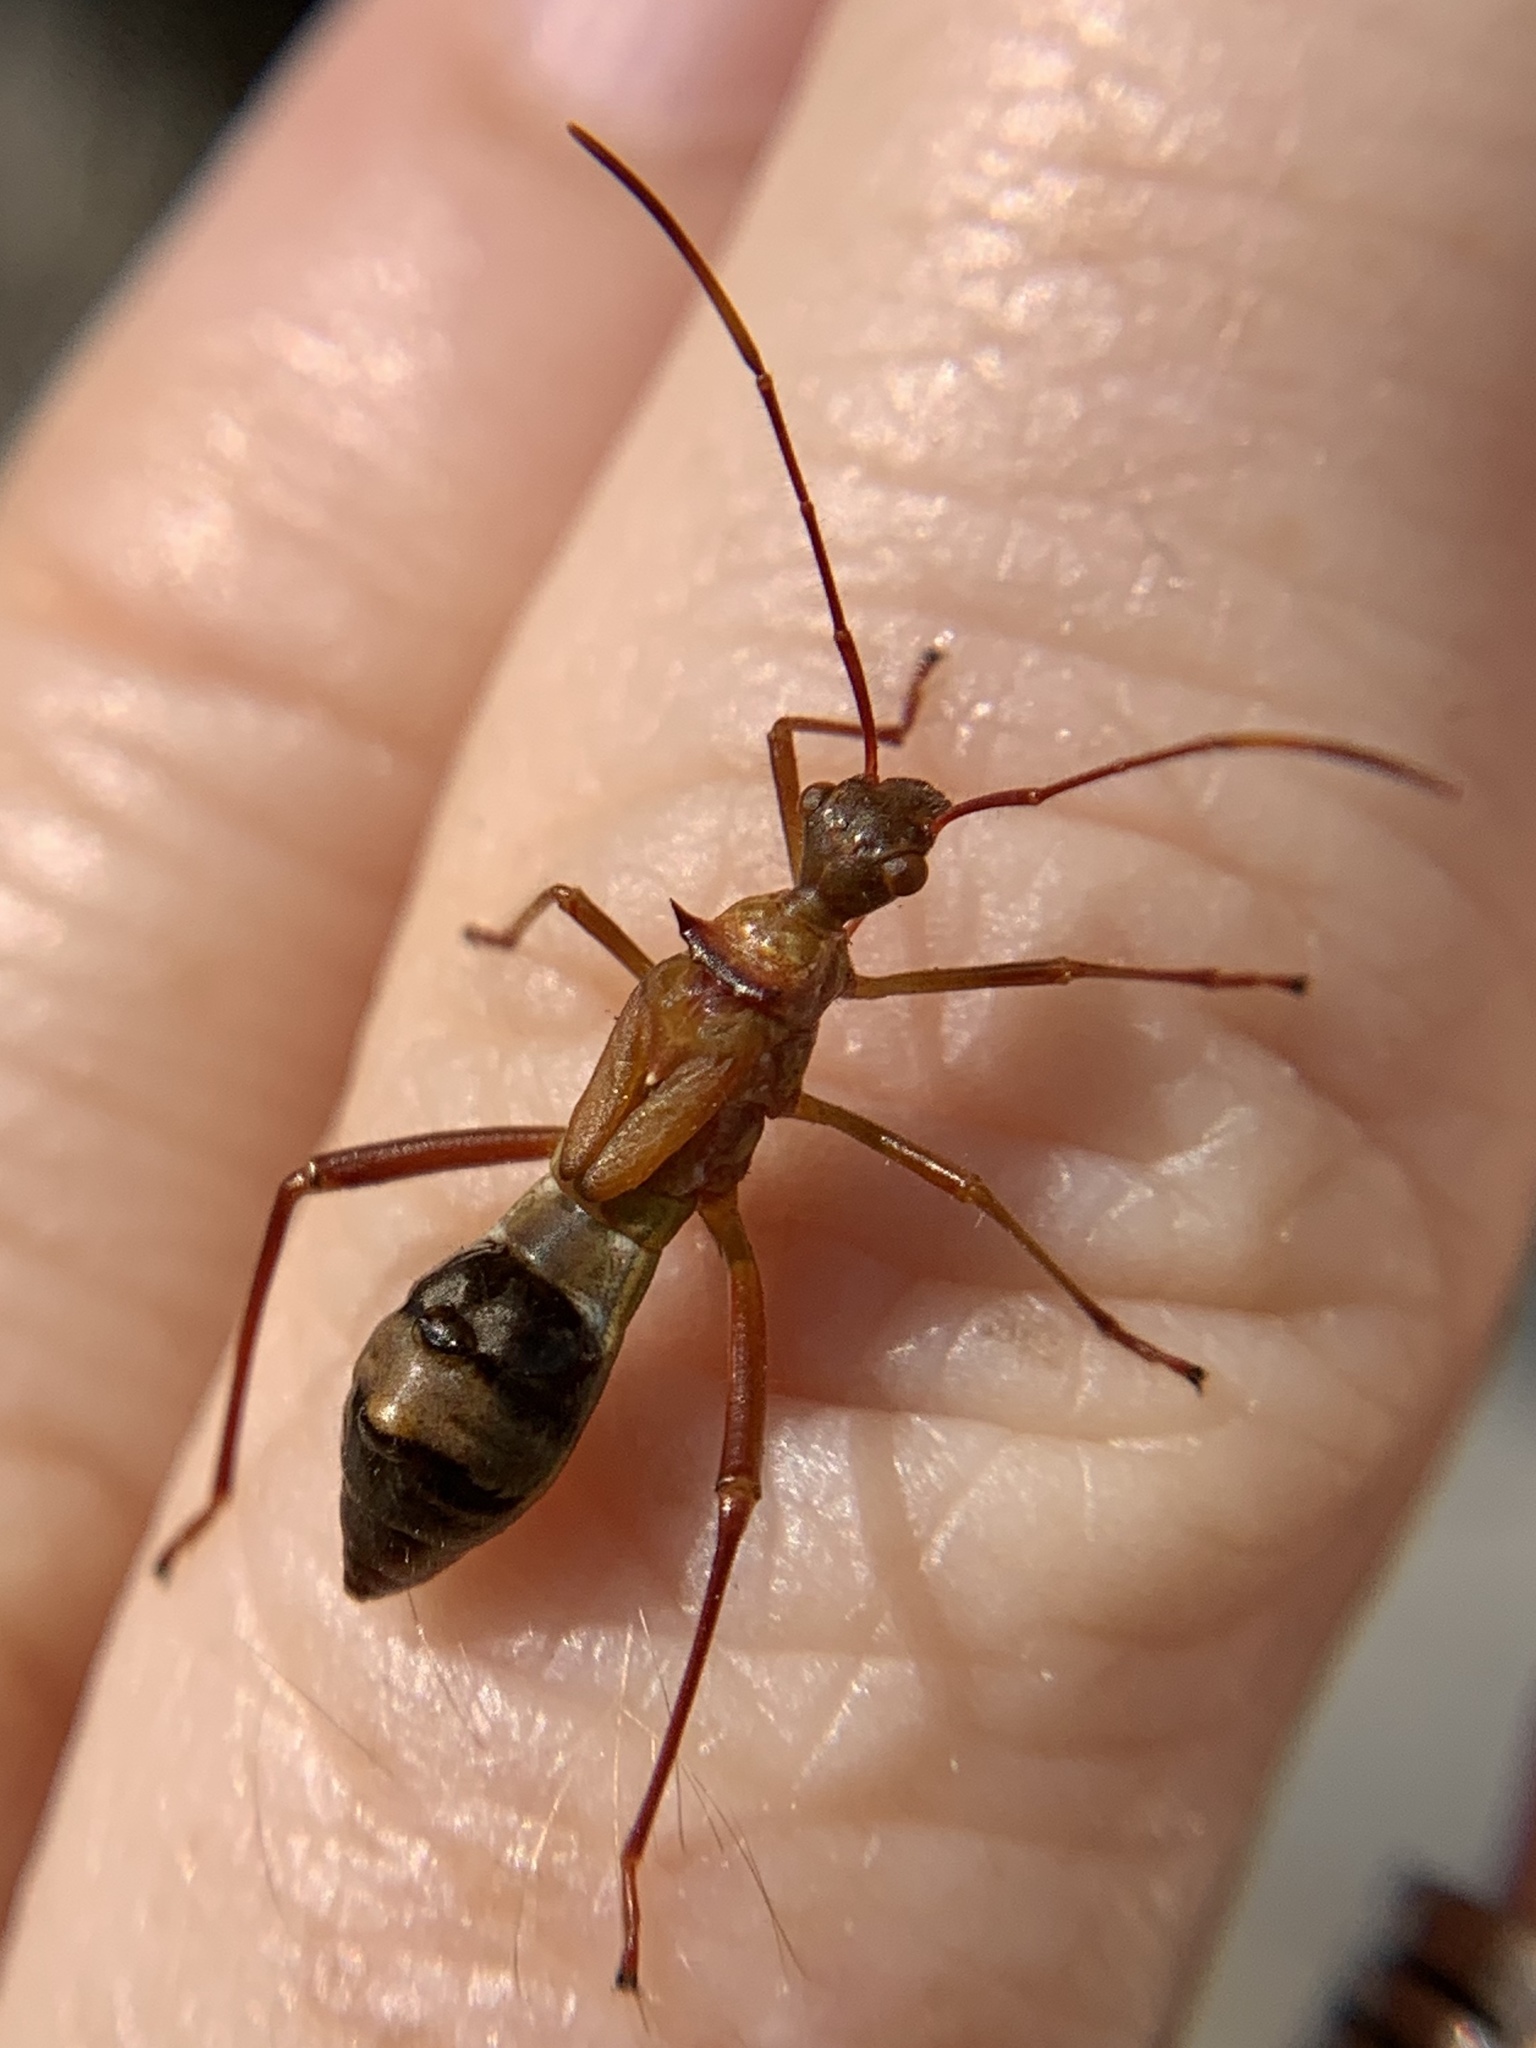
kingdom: Animalia
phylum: Arthropoda
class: Insecta
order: Hemiptera
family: Alydidae
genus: Hyalymenus
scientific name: Hyalymenus longispinus
